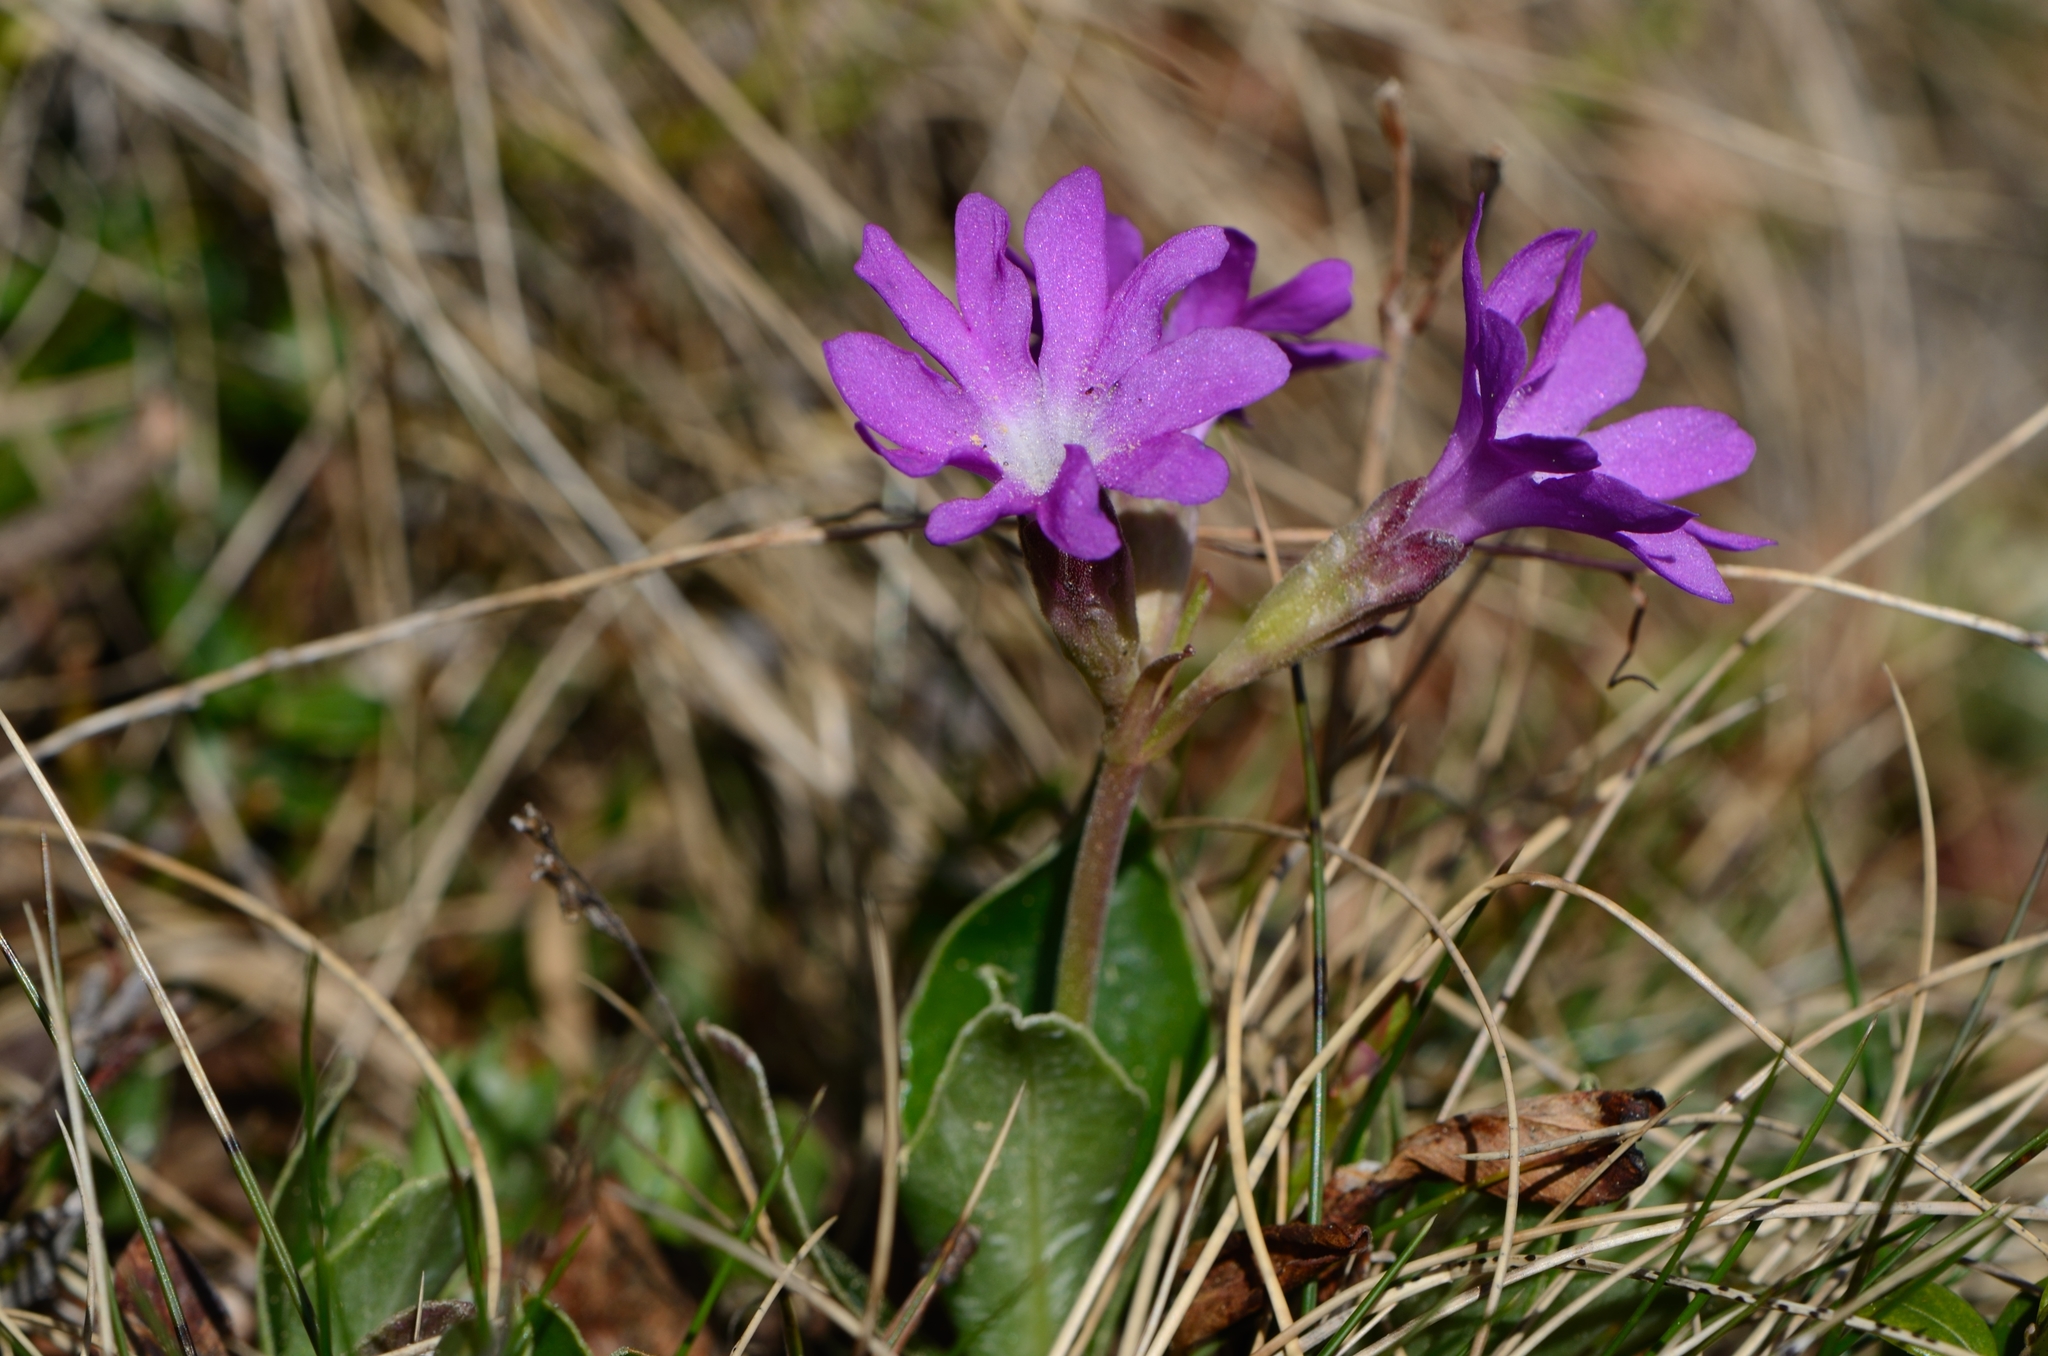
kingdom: Plantae
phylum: Tracheophyta
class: Magnoliopsida
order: Ericales
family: Primulaceae
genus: Primula
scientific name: Primula clusiana
